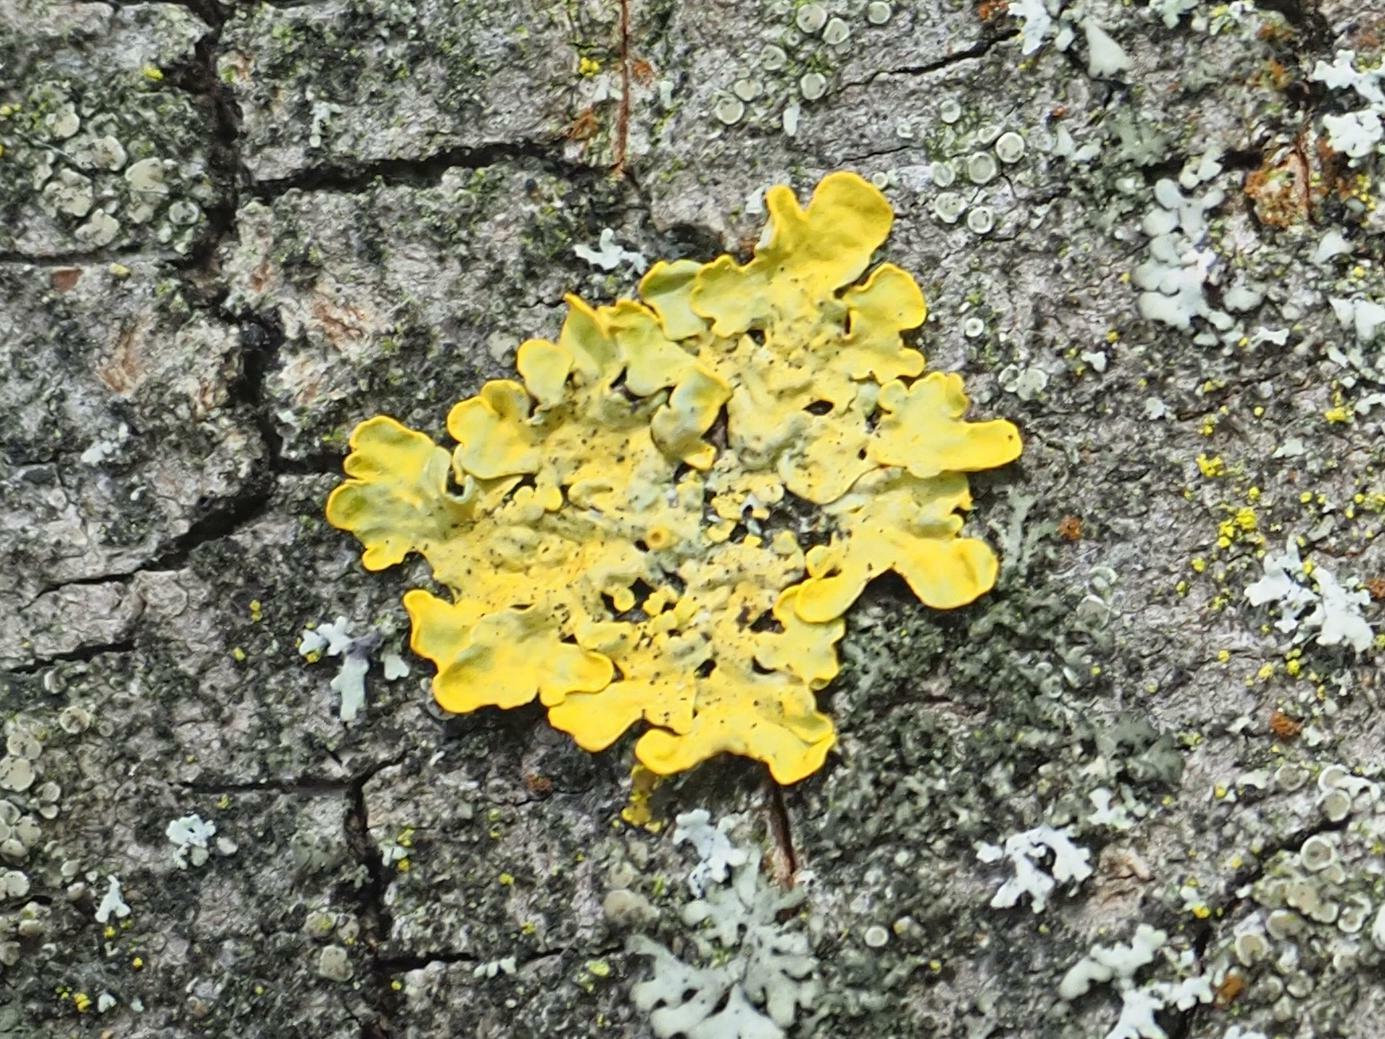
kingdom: Fungi
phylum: Ascomycota
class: Lecanoromycetes
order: Teloschistales
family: Teloschistaceae
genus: Xanthoria
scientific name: Xanthoria parietina
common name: Common orange lichen
